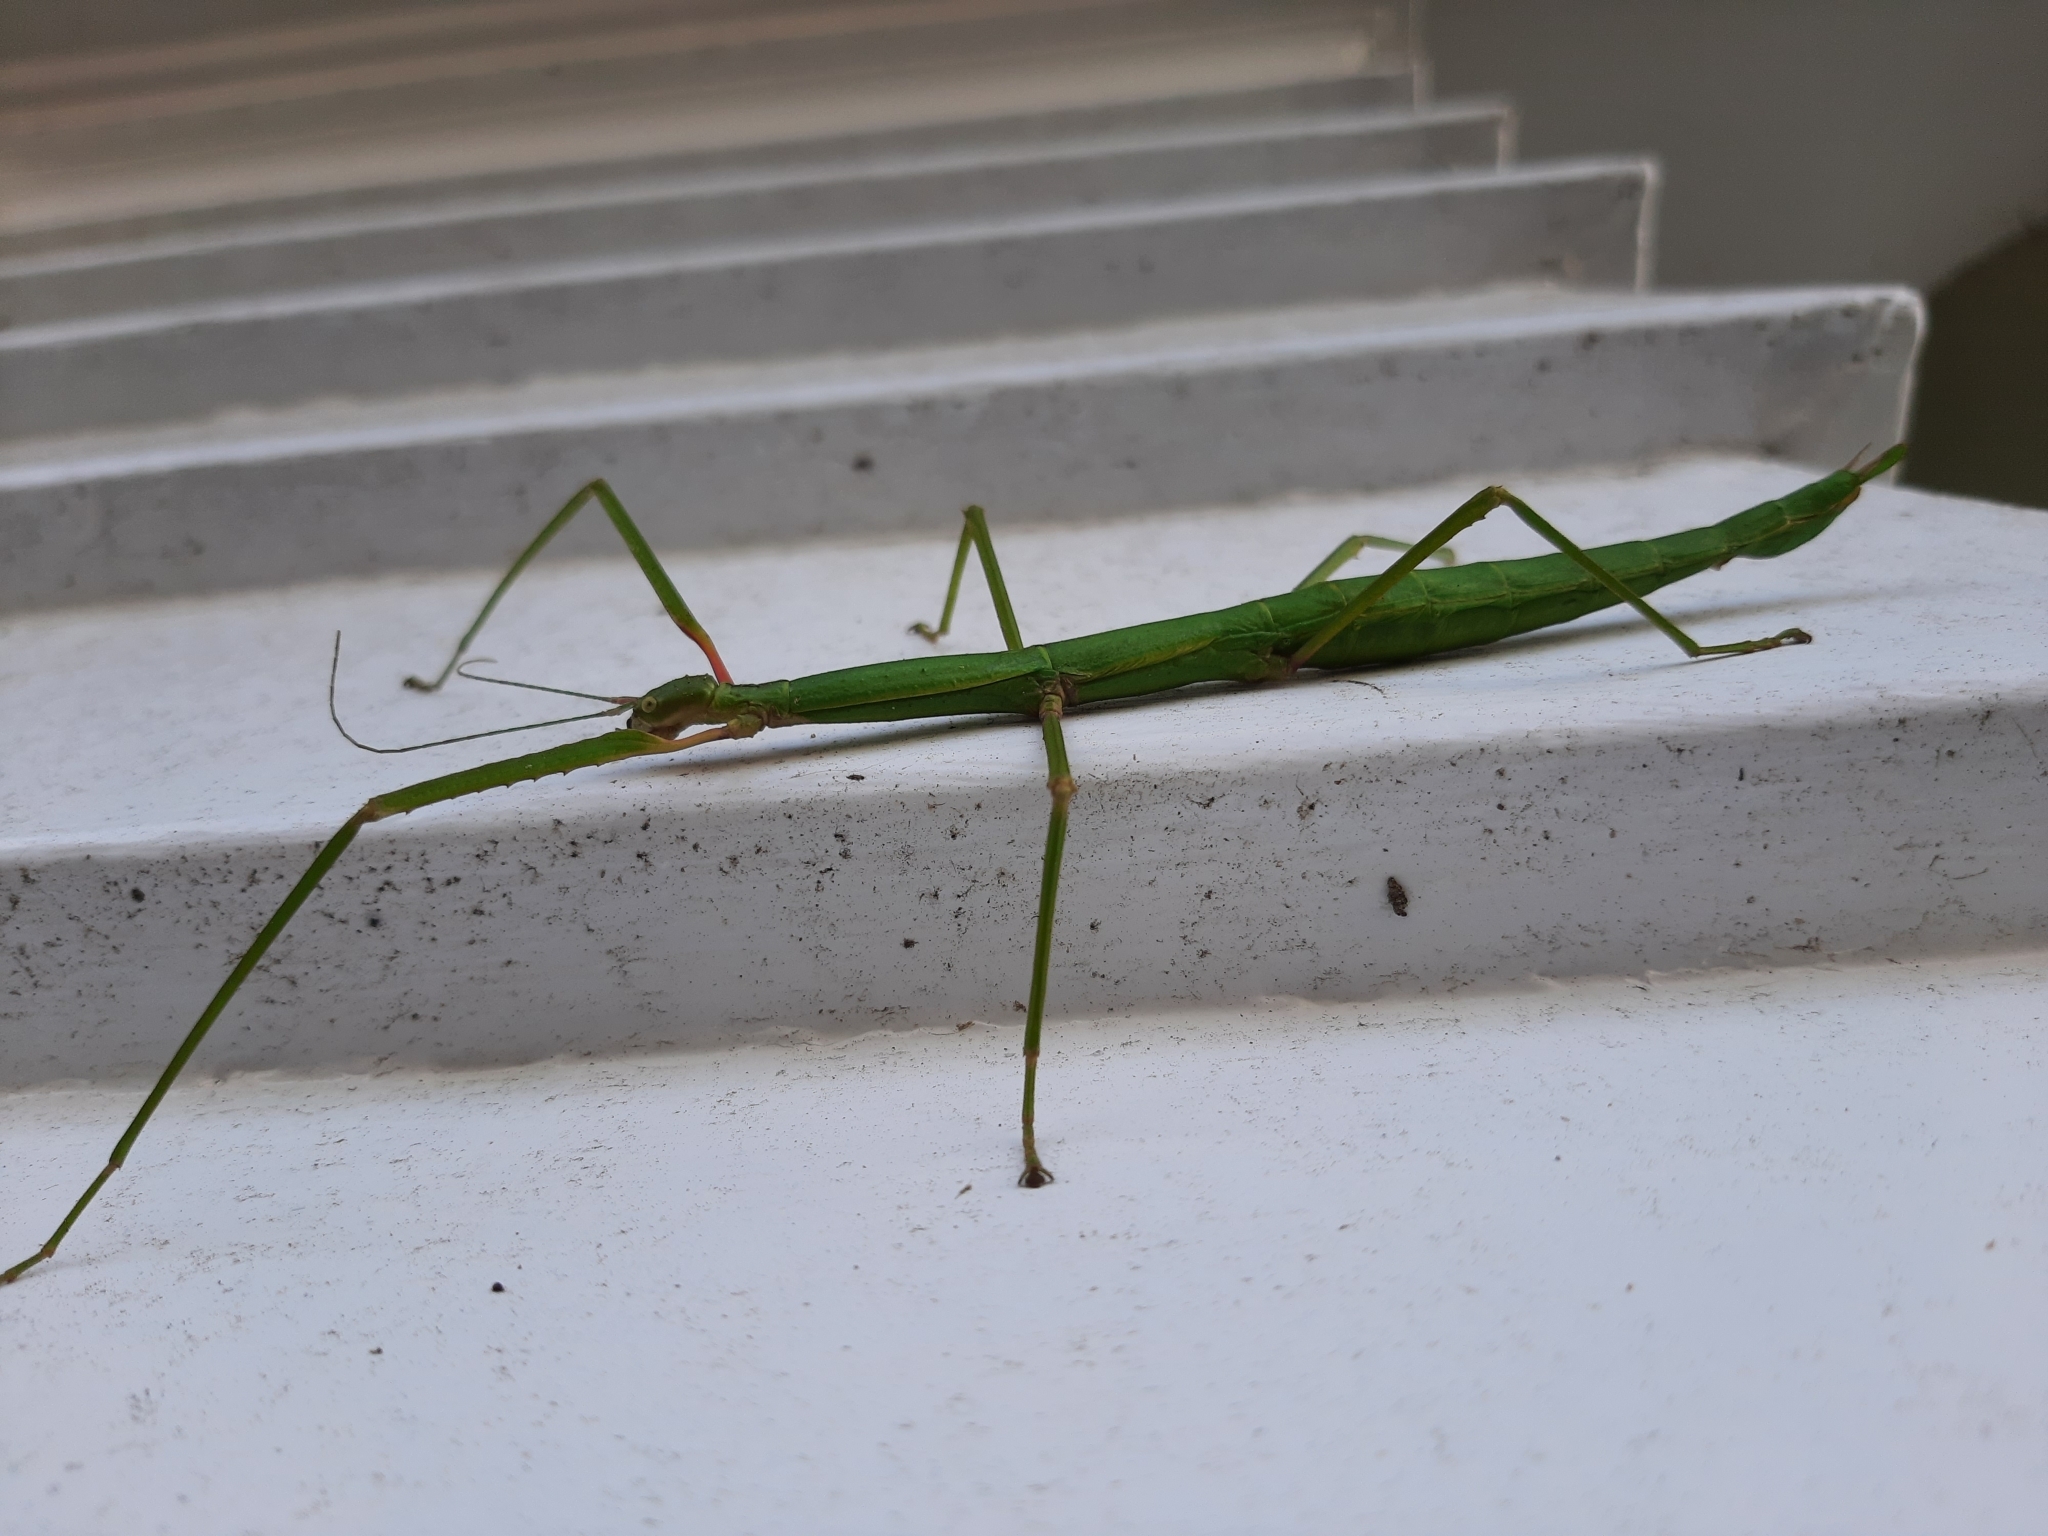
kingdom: Animalia
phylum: Arthropoda
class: Insecta
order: Phasmida
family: Phasmatidae
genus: Clitarchus
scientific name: Clitarchus hookeri
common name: Smooth stick insect
